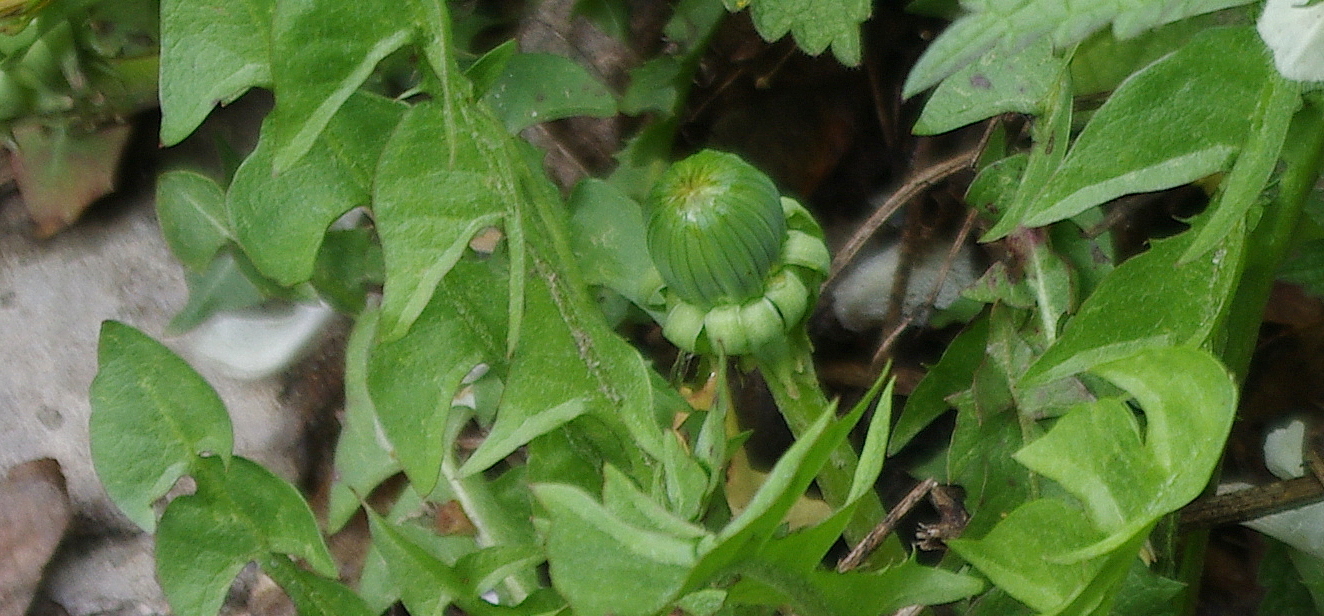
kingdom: Plantae
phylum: Tracheophyta
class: Magnoliopsida
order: Asterales
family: Asteraceae
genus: Taraxacum
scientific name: Taraxacum officinale
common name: Common dandelion
